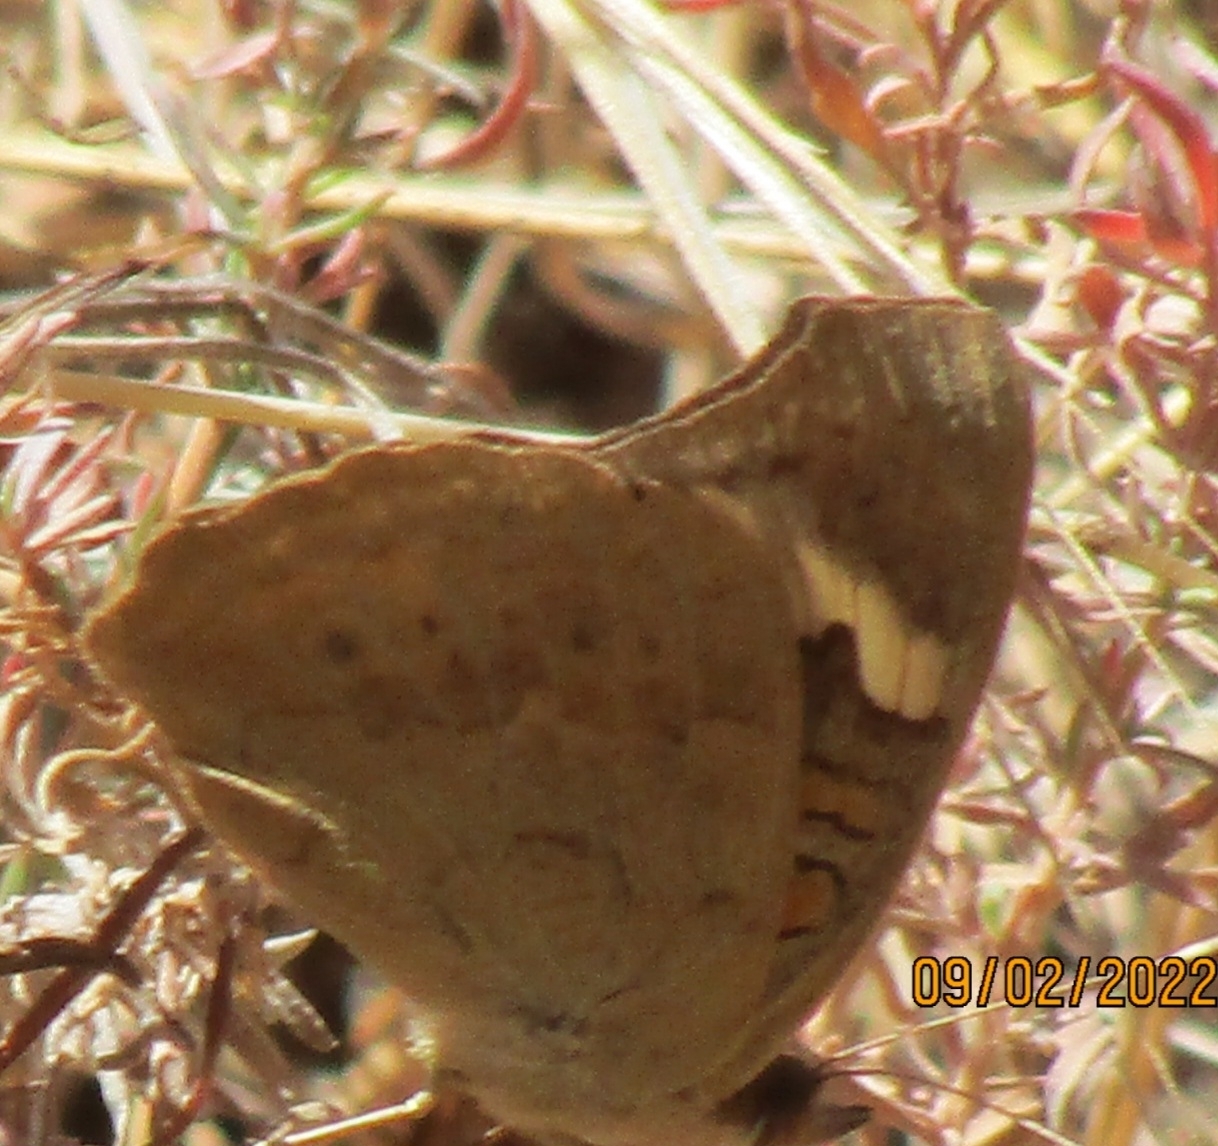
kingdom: Animalia
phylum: Arthropoda
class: Insecta
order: Lepidoptera
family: Nymphalidae
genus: Junonia
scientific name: Junonia grisea
